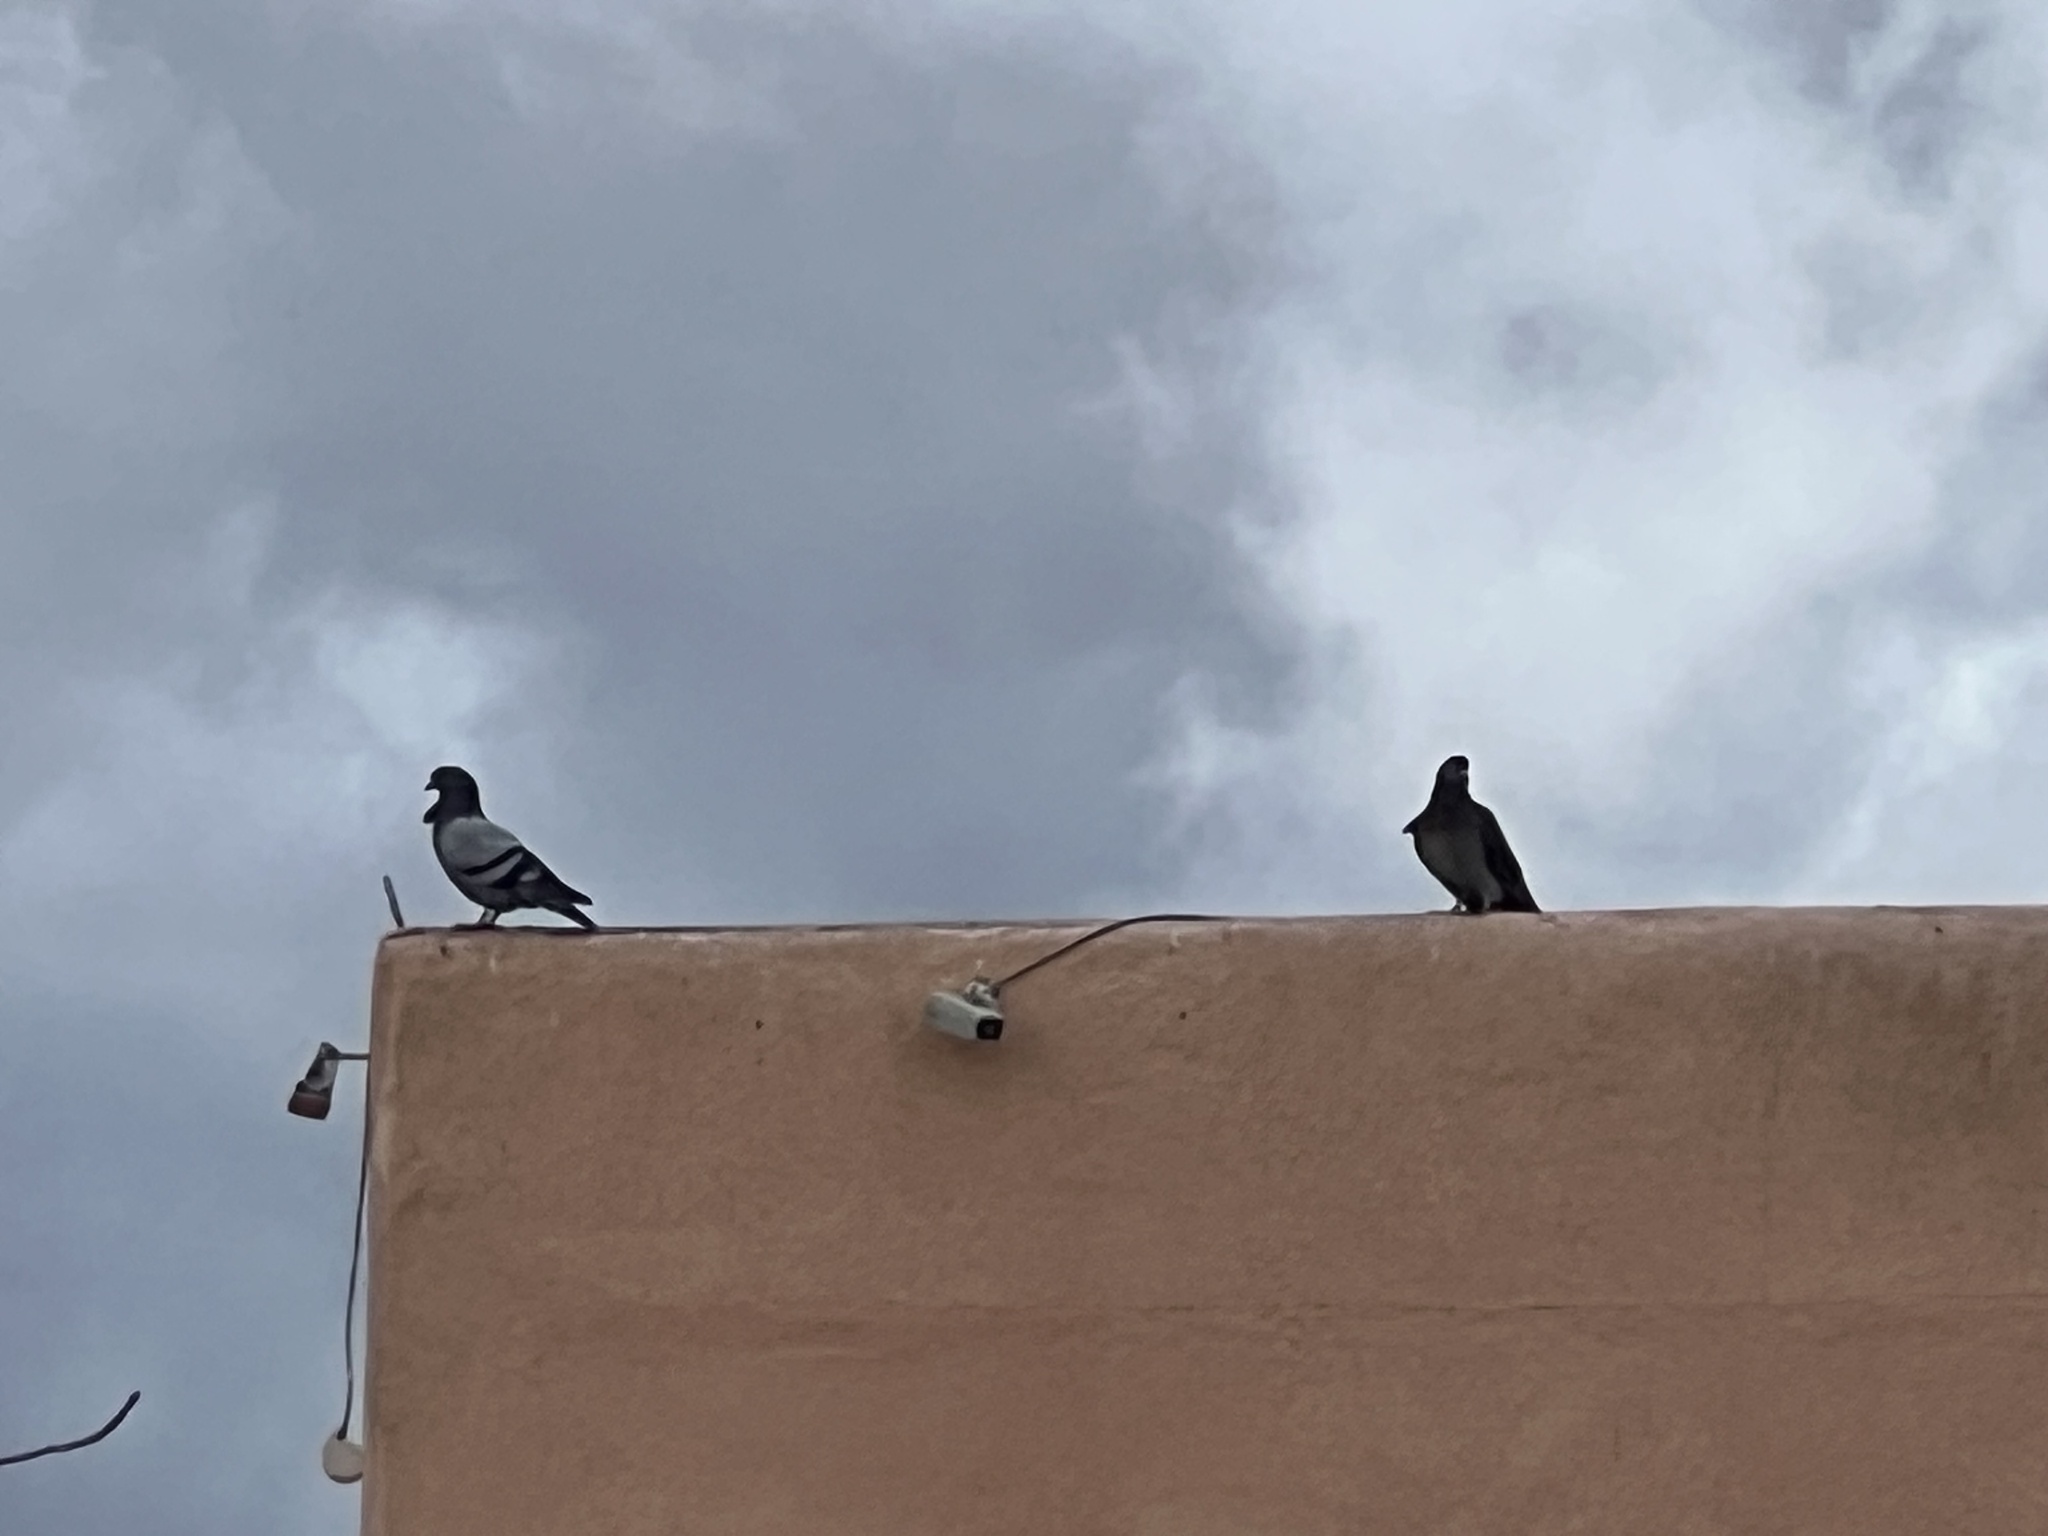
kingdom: Animalia
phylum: Chordata
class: Aves
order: Columbiformes
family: Columbidae
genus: Columba
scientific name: Columba livia
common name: Rock pigeon
